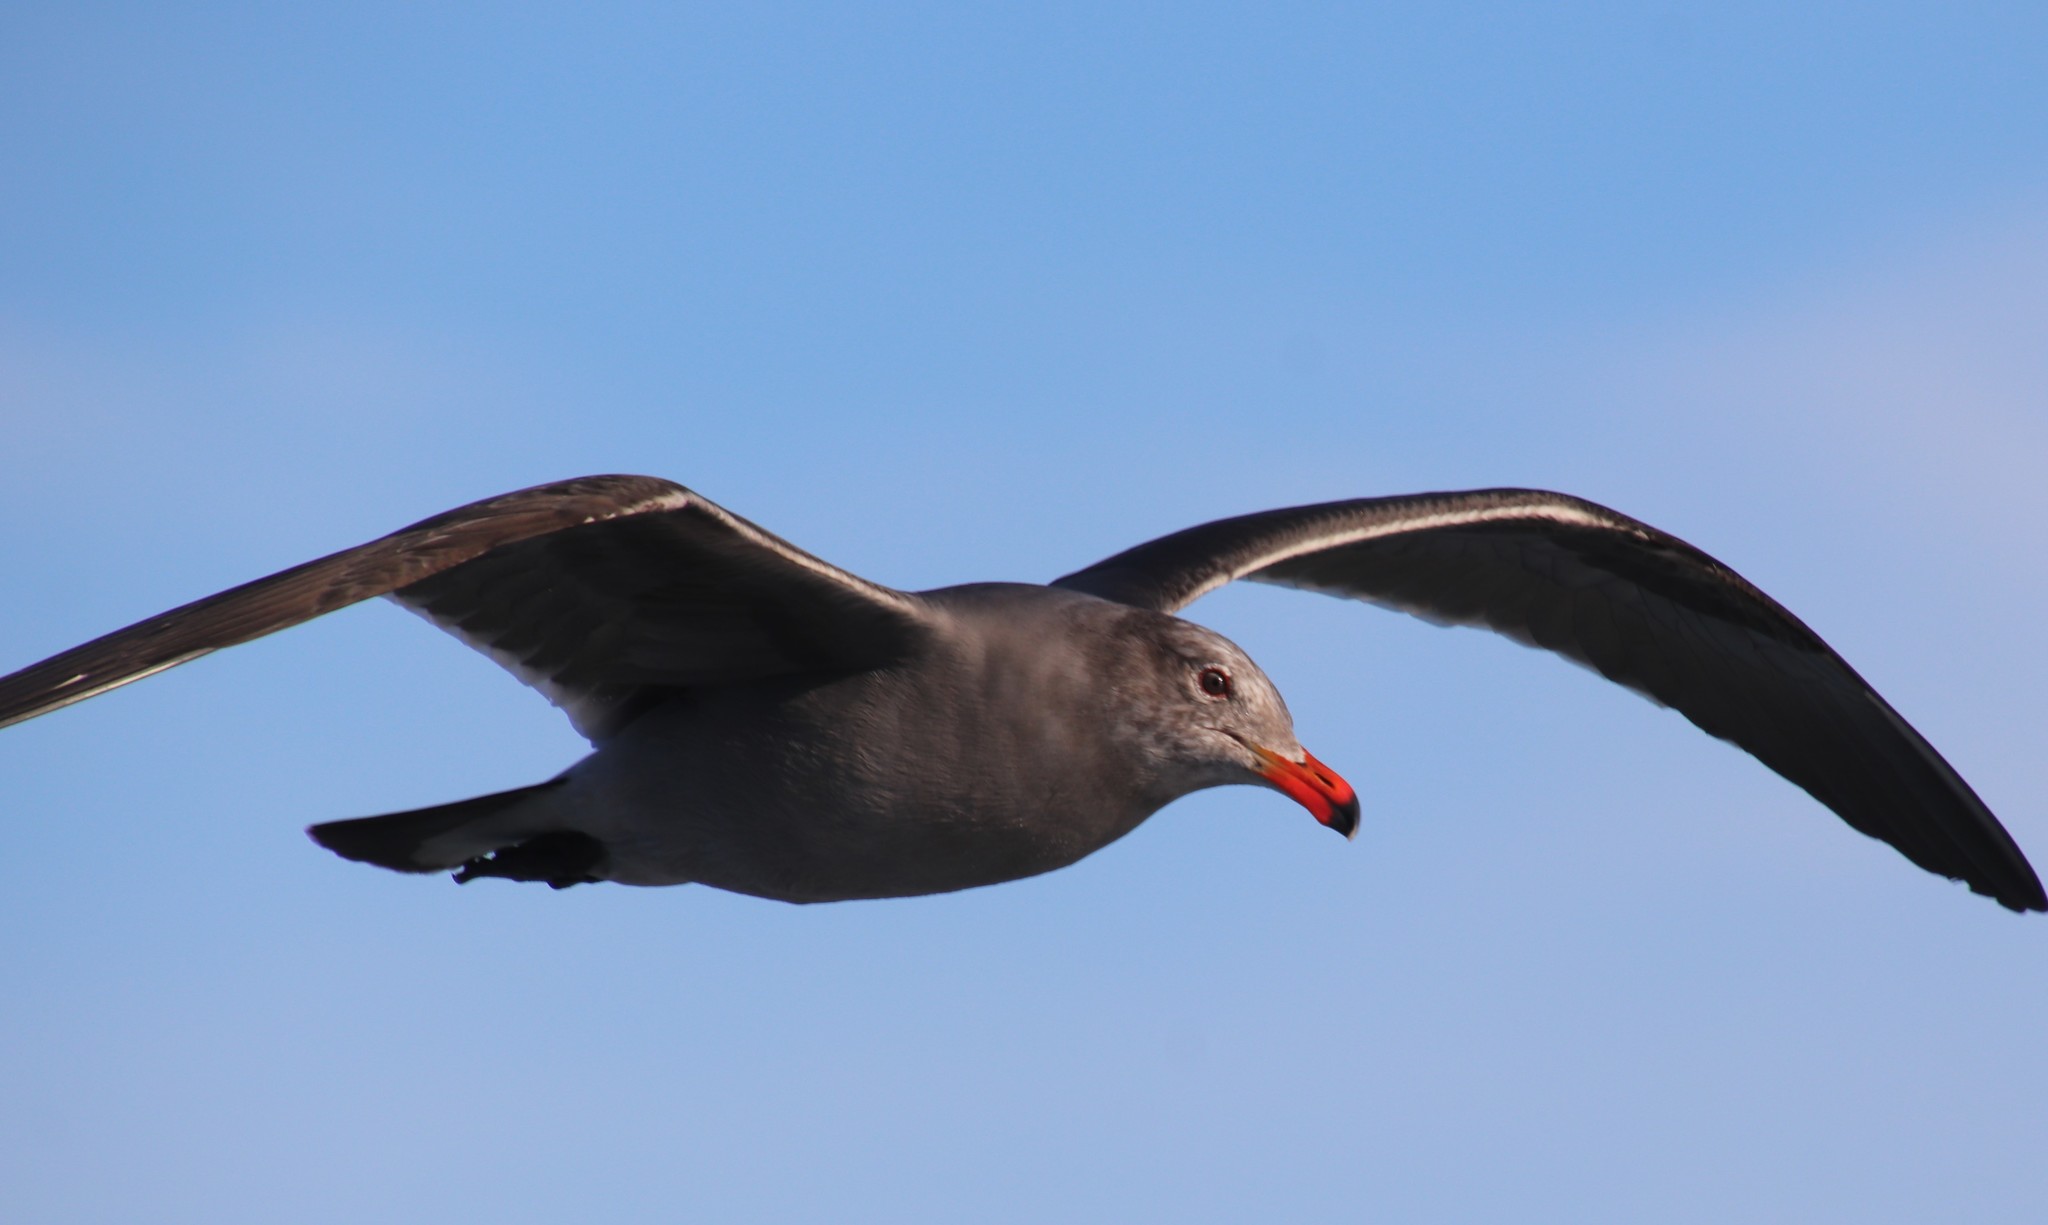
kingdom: Animalia
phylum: Chordata
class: Aves
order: Charadriiformes
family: Laridae
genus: Larus
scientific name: Larus heermanni
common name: Heermann's gull
